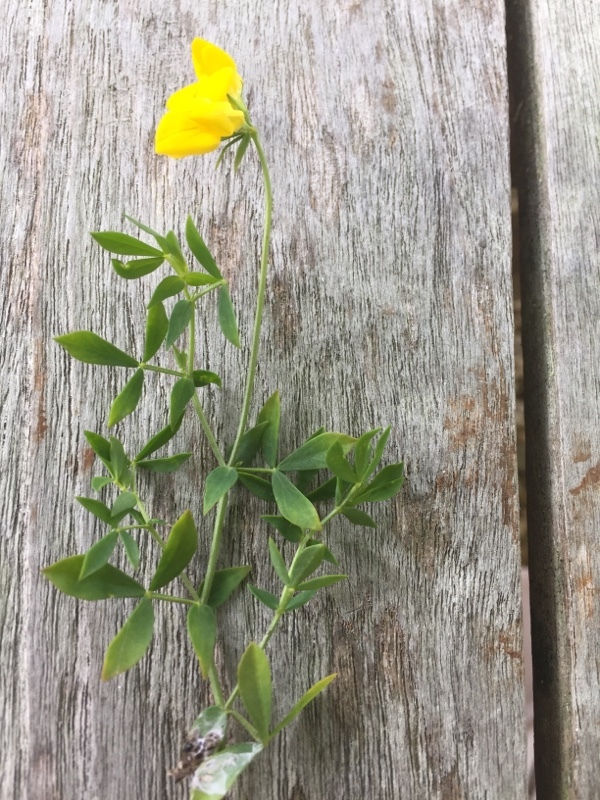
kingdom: Plantae
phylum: Tracheophyta
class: Magnoliopsida
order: Fabales
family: Fabaceae
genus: Lotus
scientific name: Lotus corniculatus
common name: Common bird's-foot-trefoil
